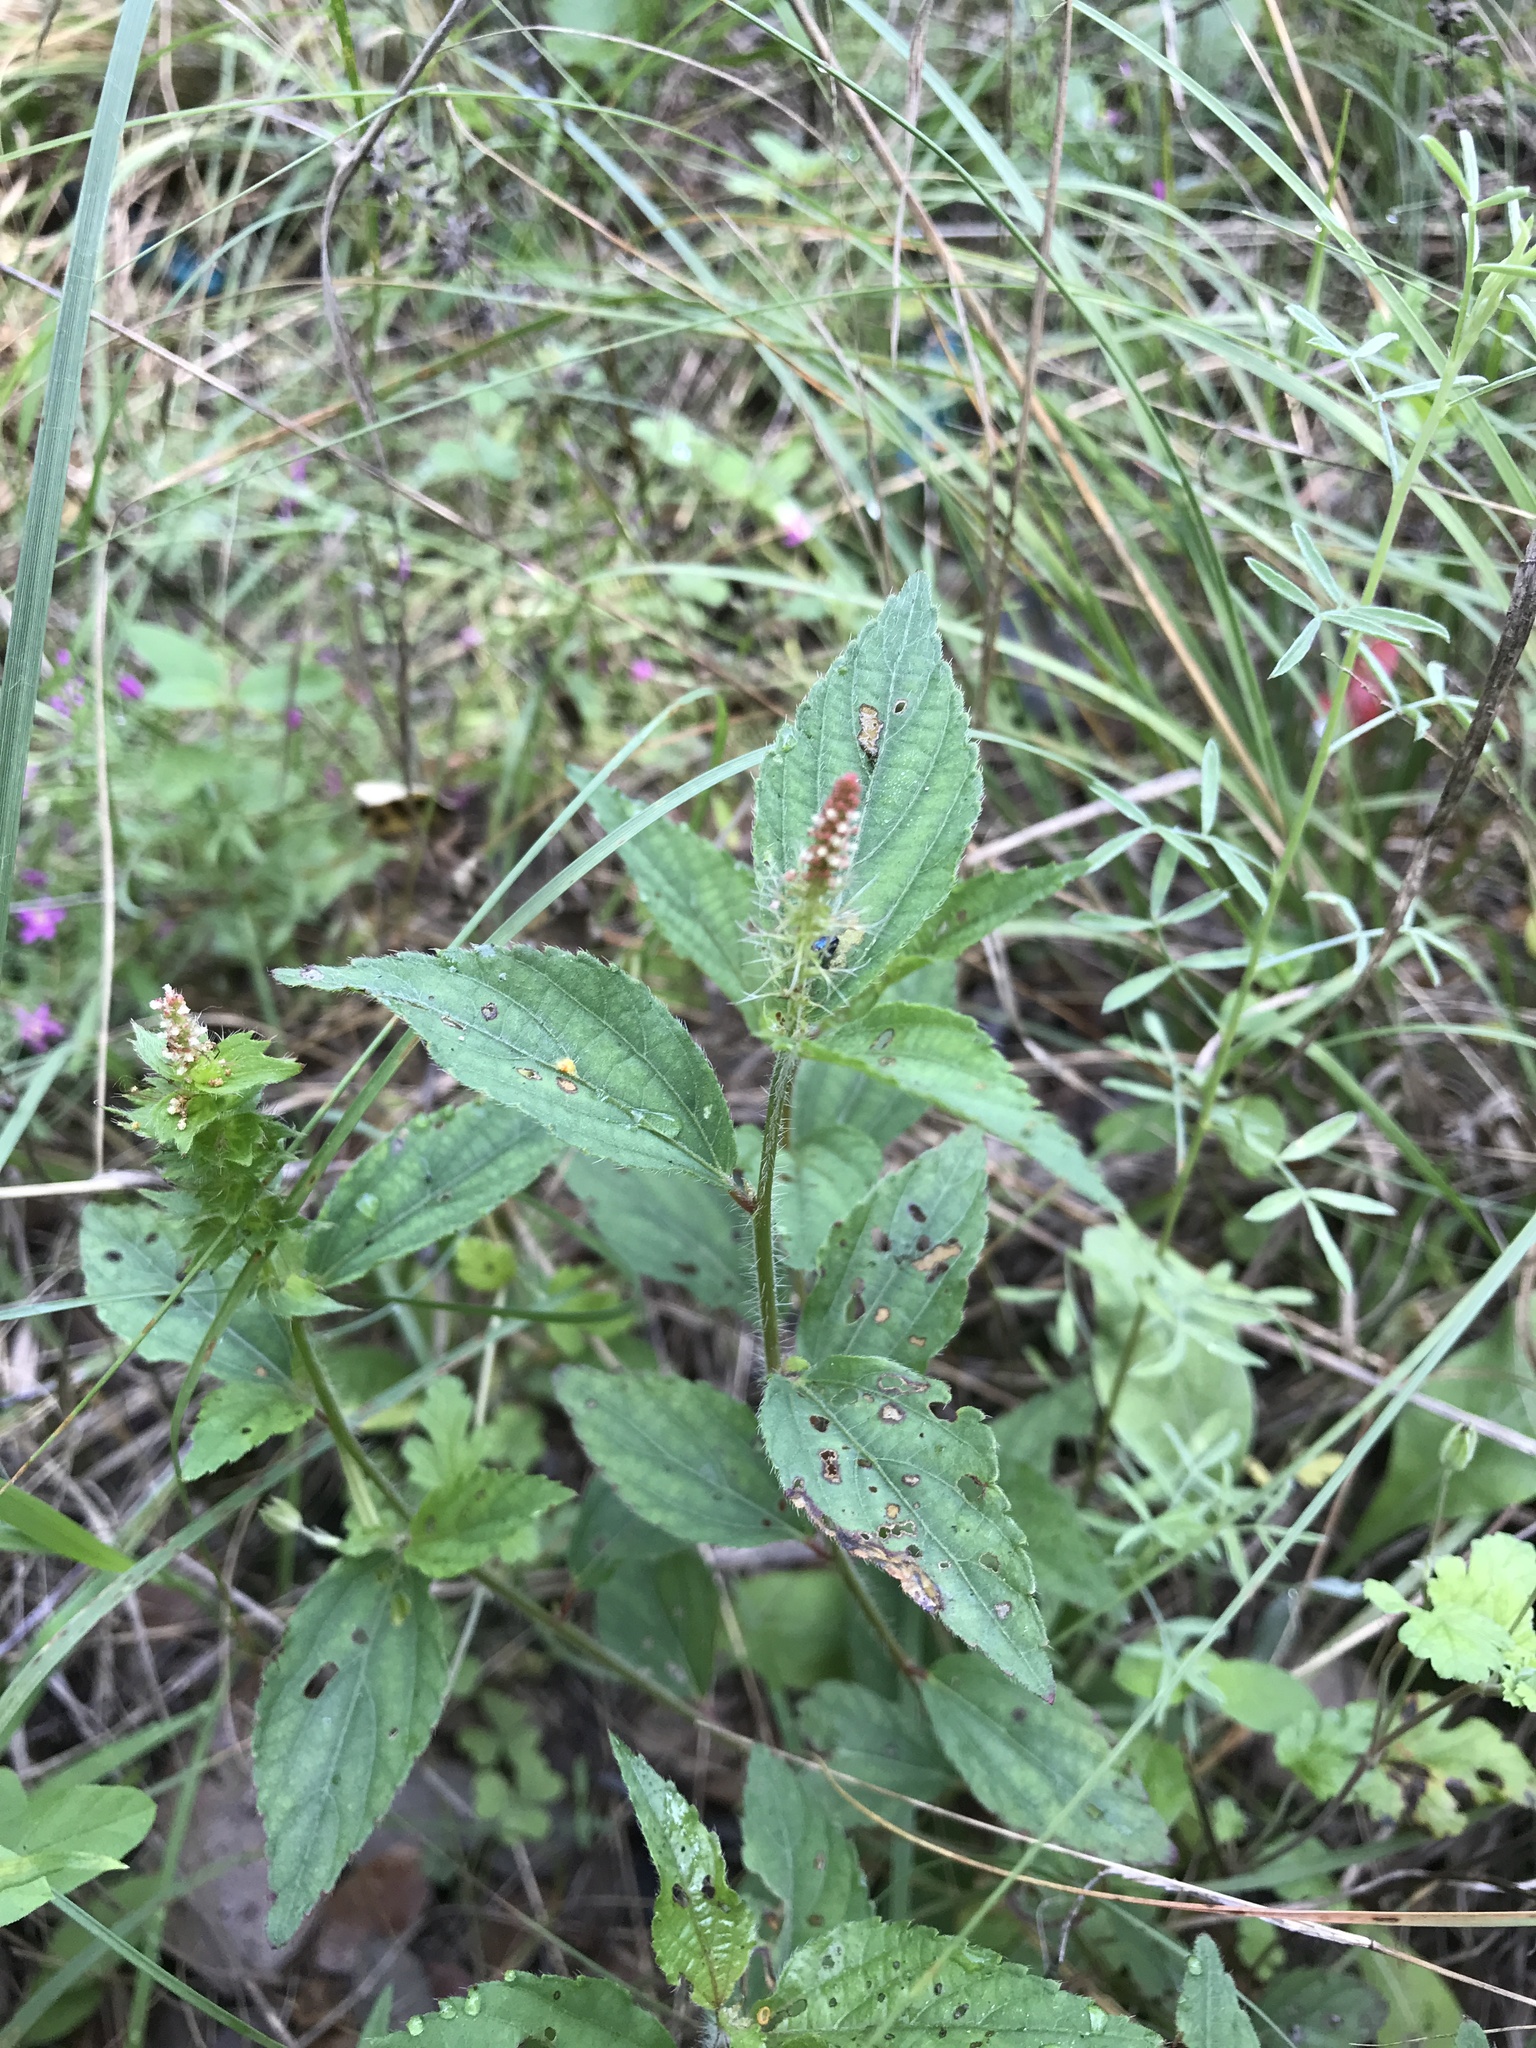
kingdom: Plantae
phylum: Tracheophyta
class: Magnoliopsida
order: Malpighiales
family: Euphorbiaceae
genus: Acalypha
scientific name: Acalypha phleoides
